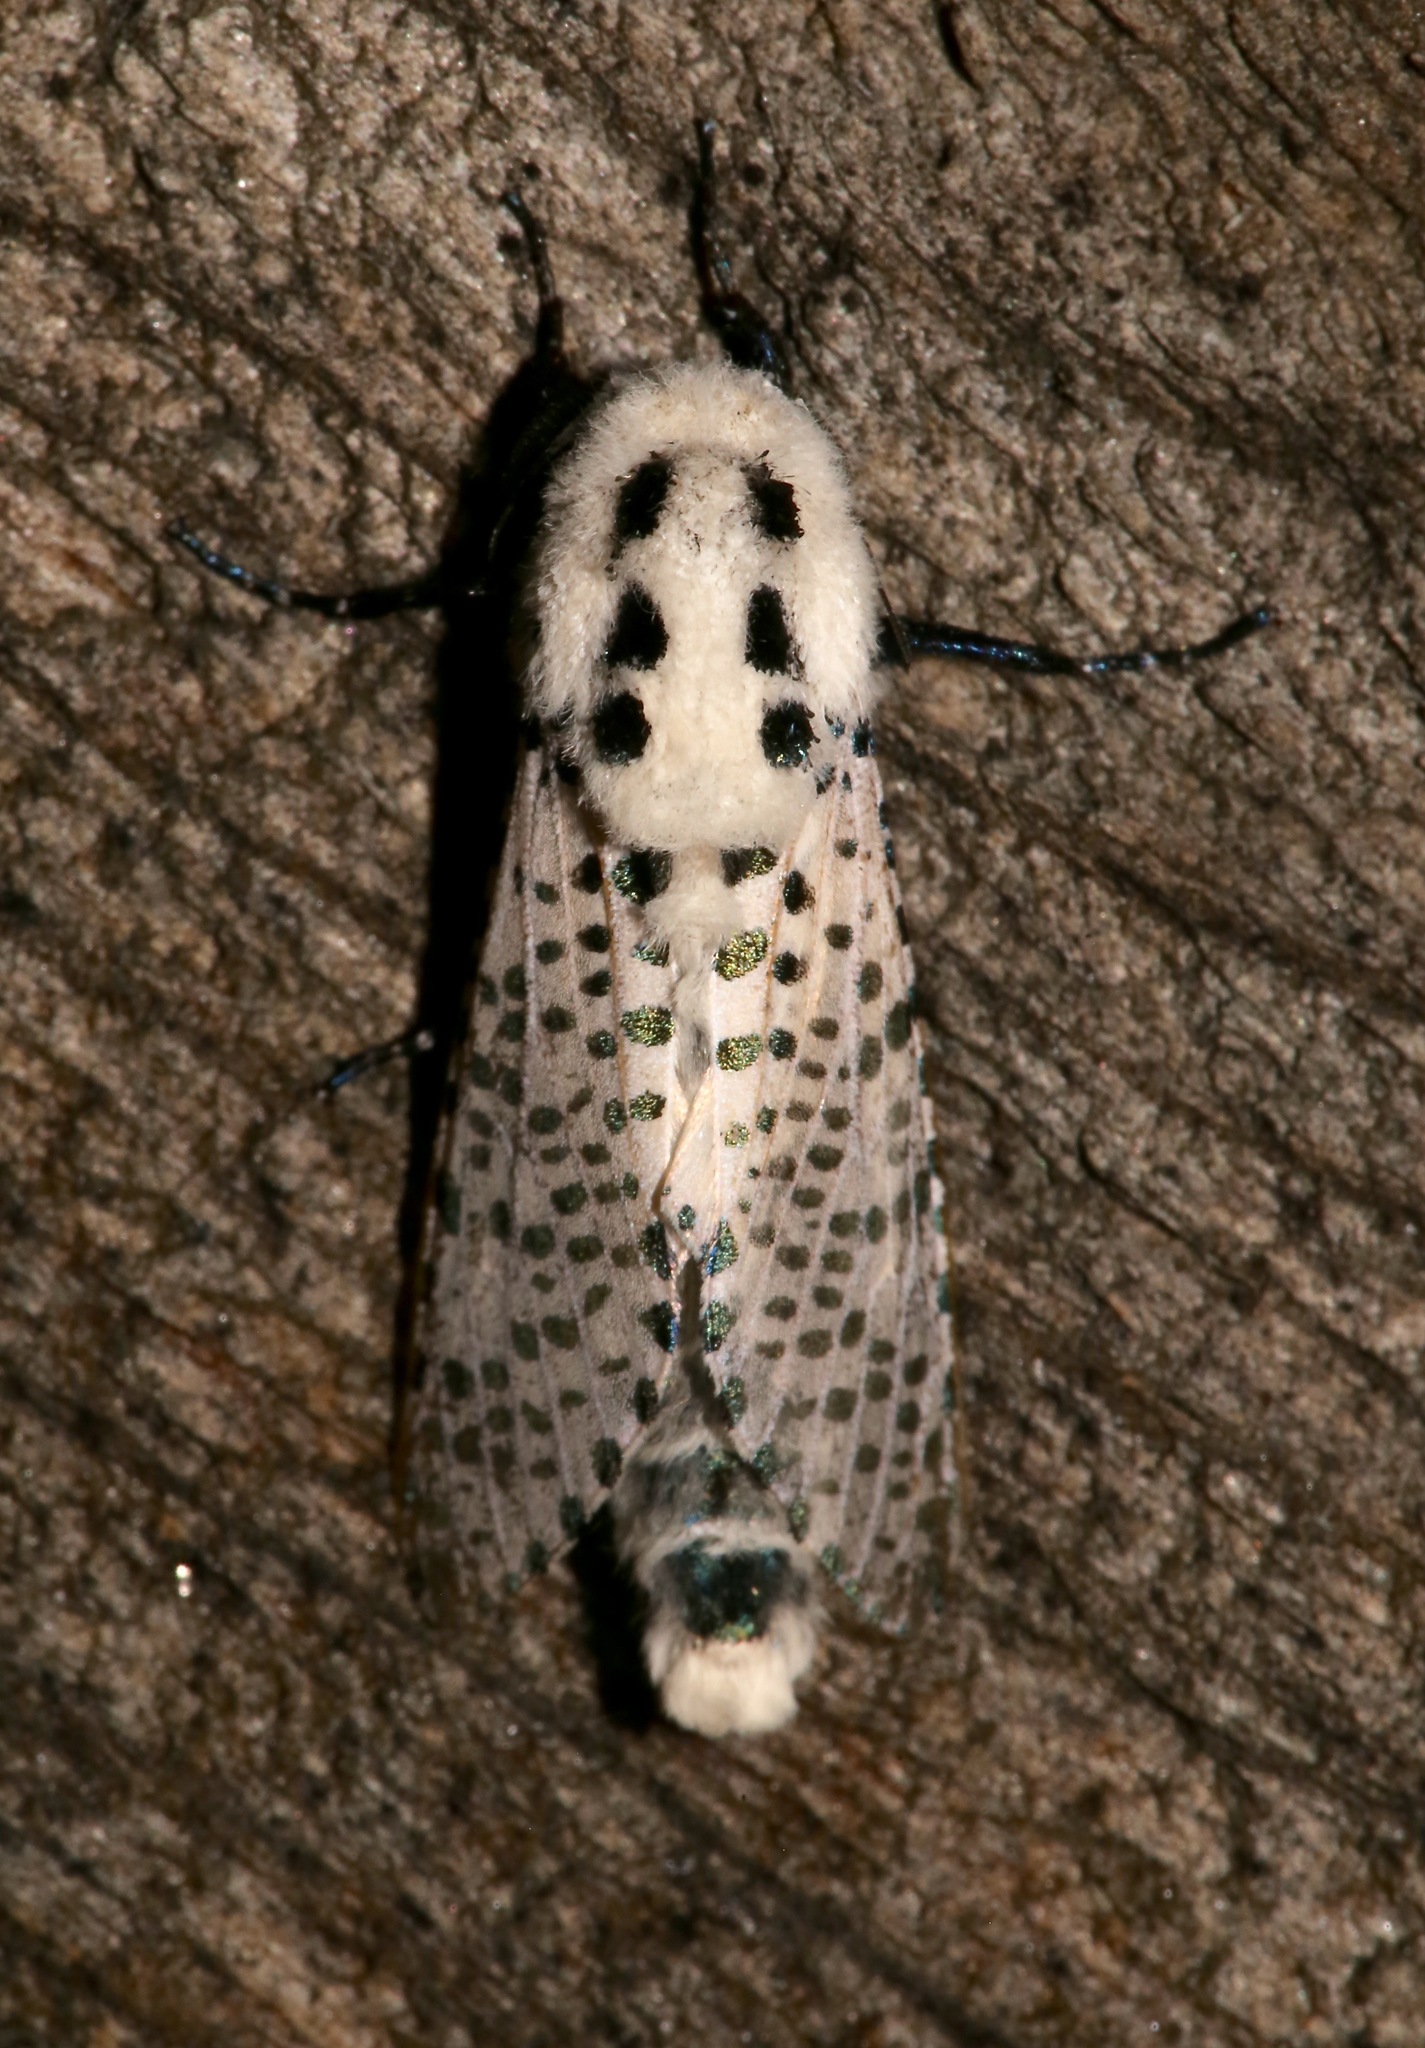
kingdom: Animalia
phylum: Arthropoda
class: Insecta
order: Lepidoptera
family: Cossidae
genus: Zeuzera
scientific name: Zeuzera pyrina
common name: Leopard moth
